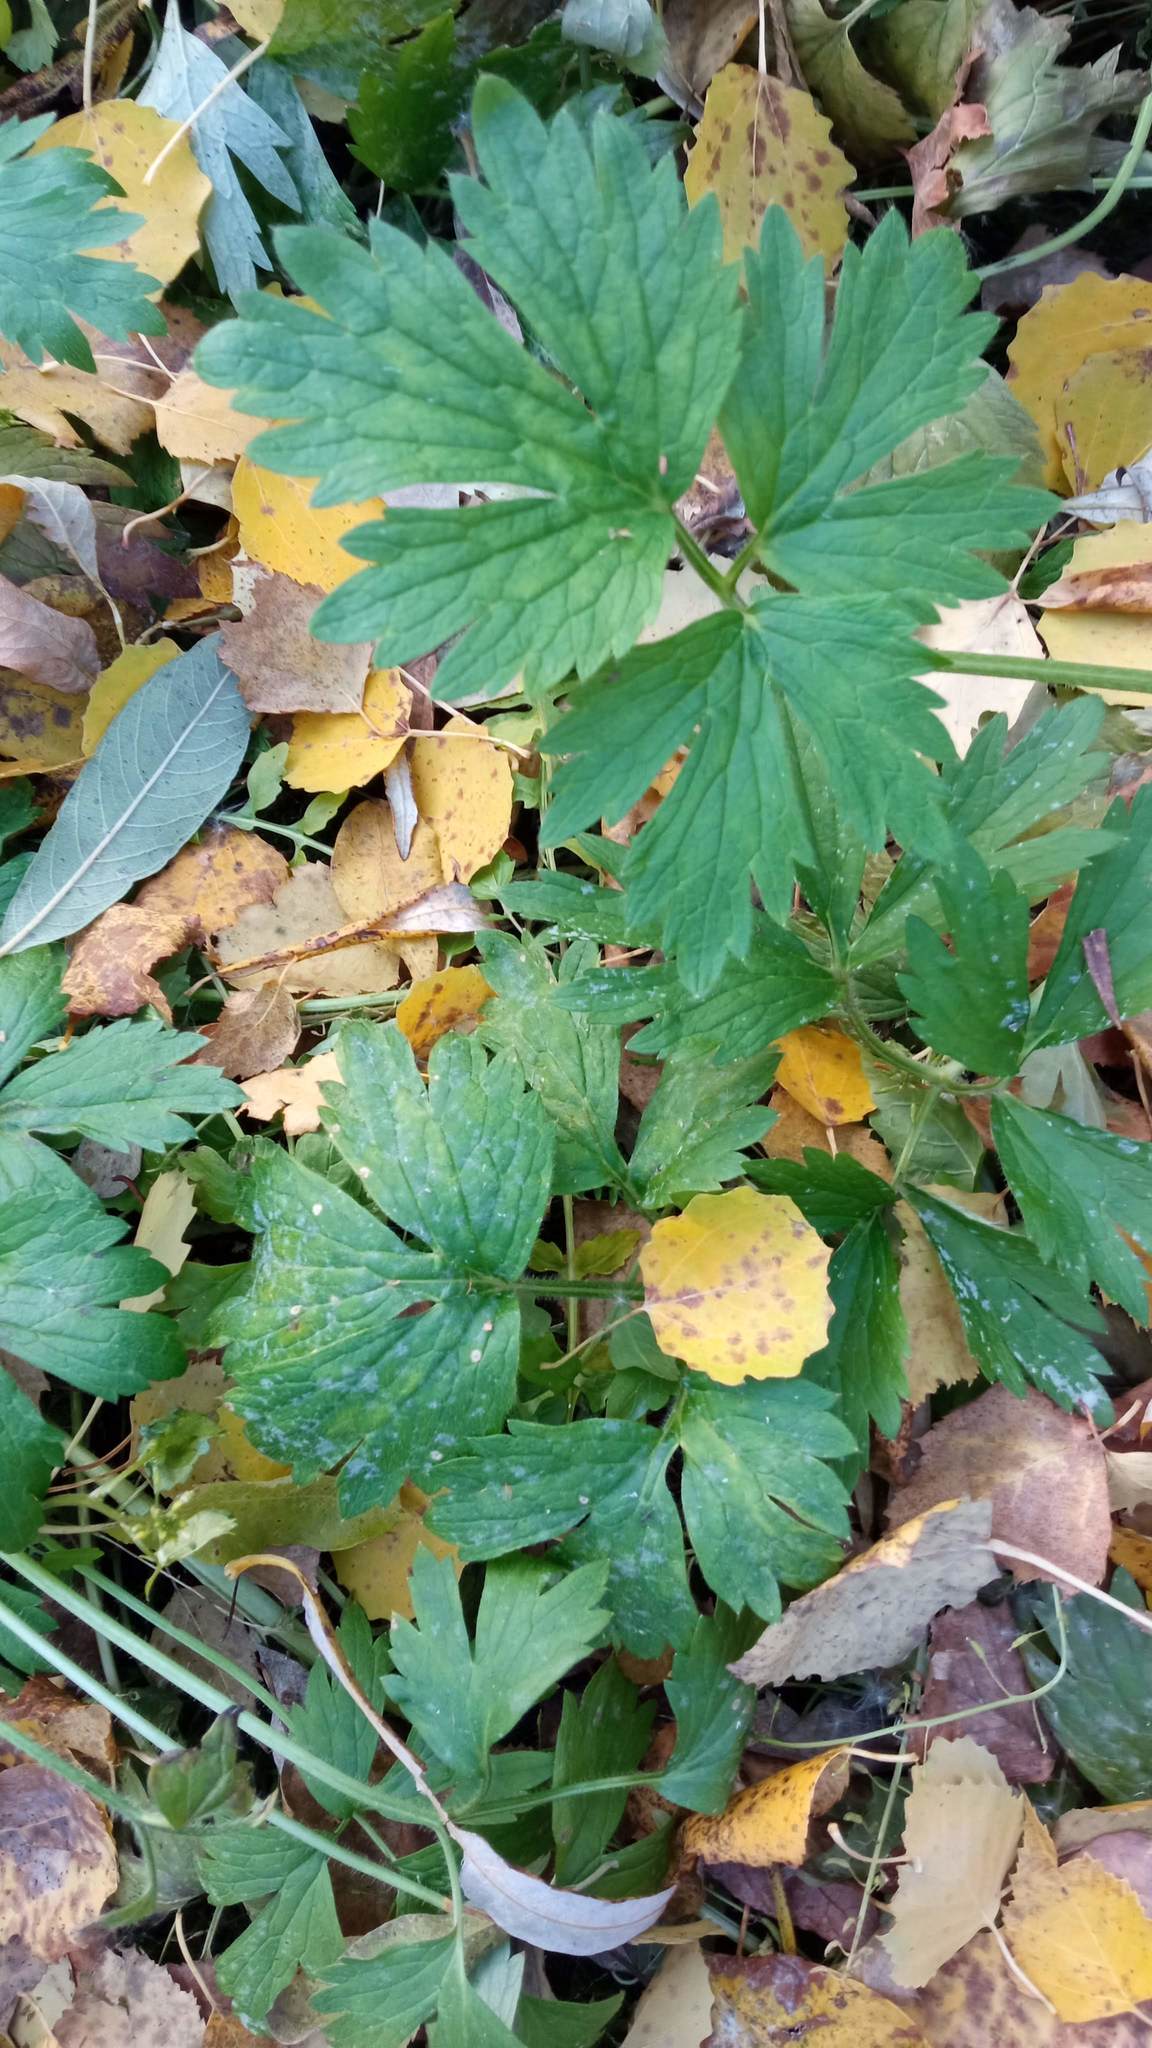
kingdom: Plantae
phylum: Tracheophyta
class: Magnoliopsida
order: Ranunculales
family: Ranunculaceae
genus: Ranunculus
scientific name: Ranunculus repens
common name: Creeping buttercup
